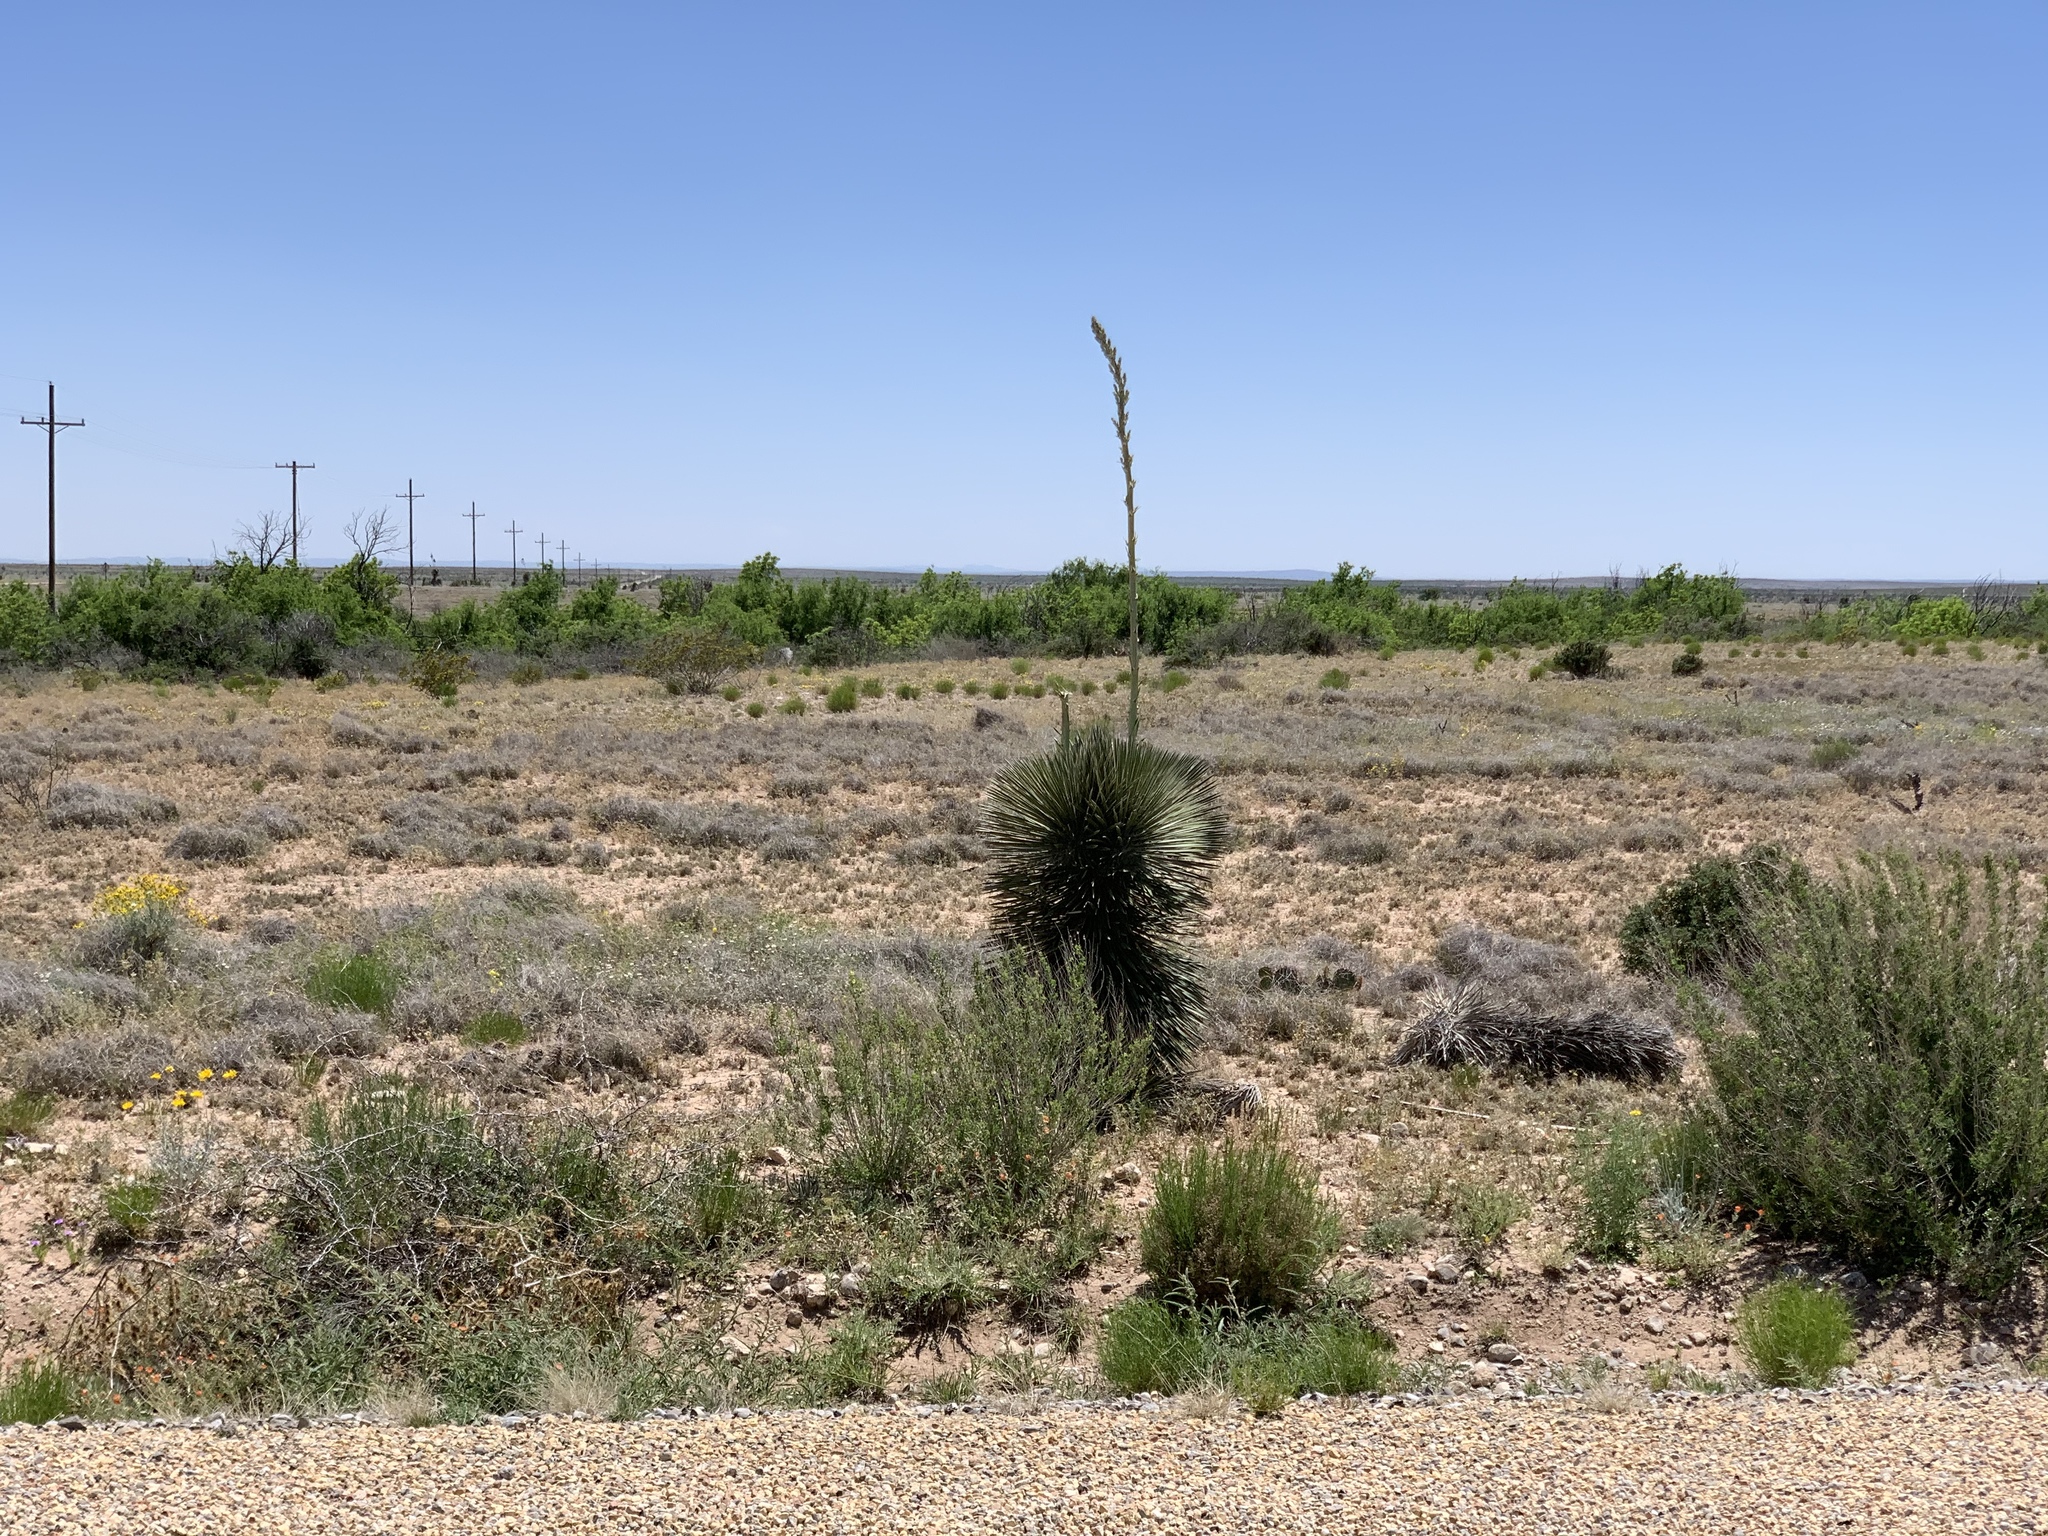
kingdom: Plantae
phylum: Tracheophyta
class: Liliopsida
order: Asparagales
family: Asparagaceae
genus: Yucca
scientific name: Yucca elata
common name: Palmella
